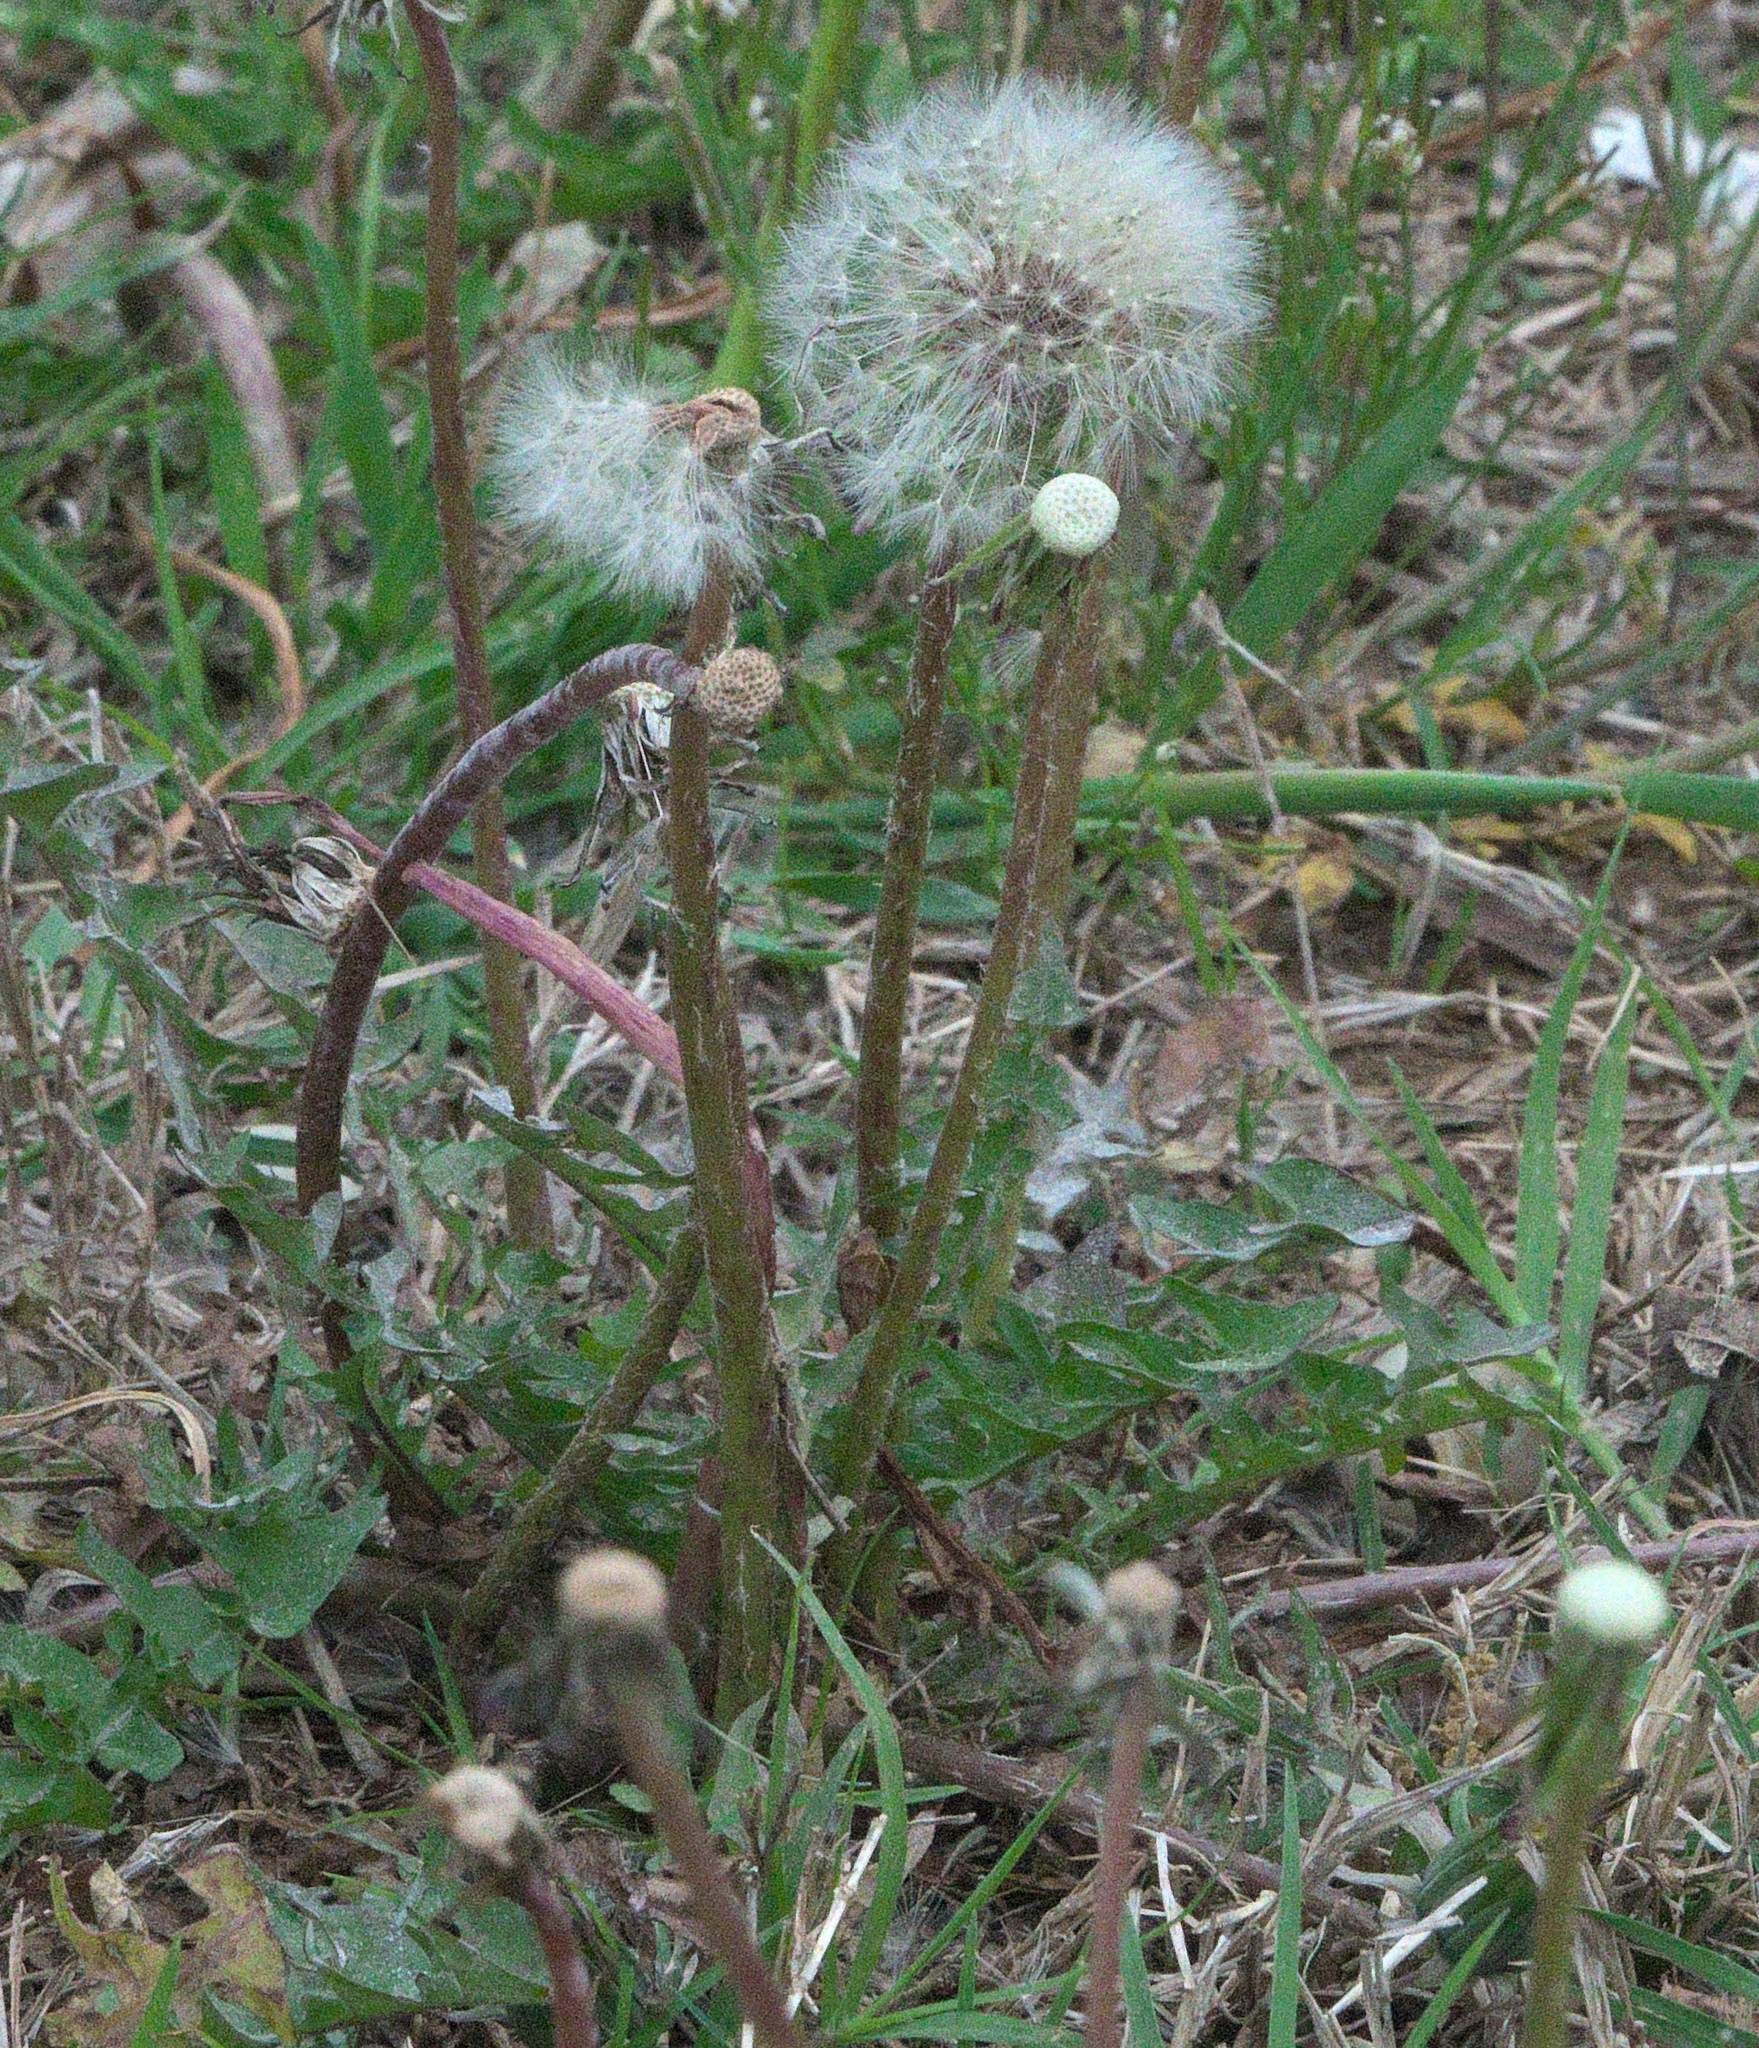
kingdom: Plantae
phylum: Tracheophyta
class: Magnoliopsida
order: Asterales
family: Asteraceae
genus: Taraxacum
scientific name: Taraxacum erythrospermum
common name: Rock dandelion
